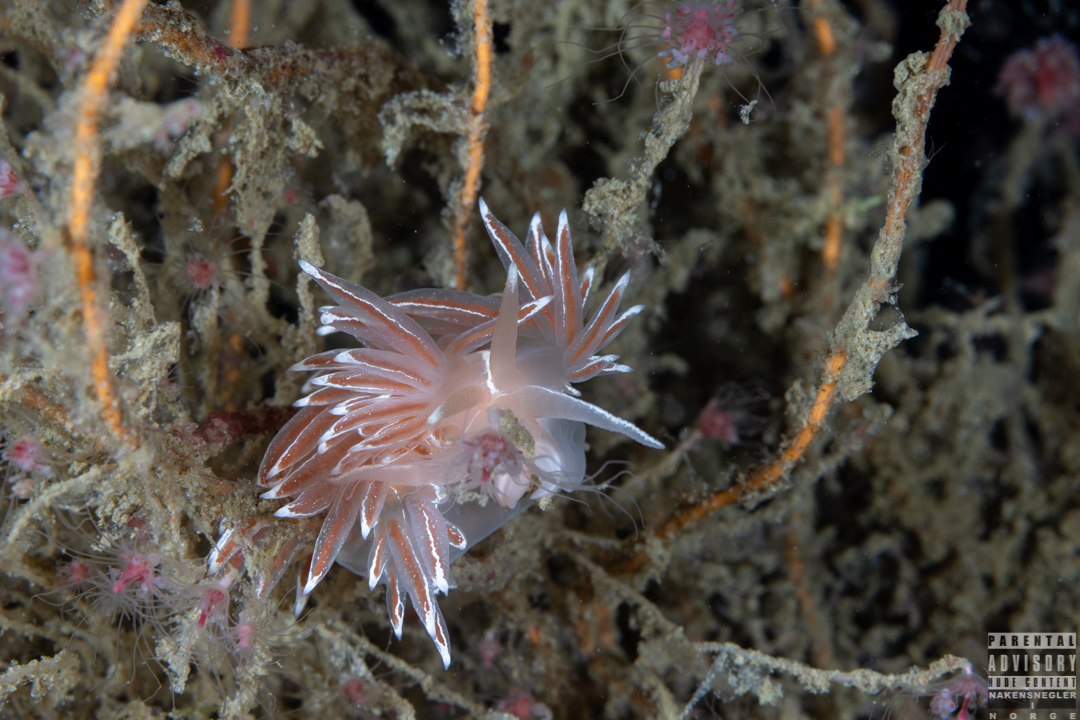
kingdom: Animalia
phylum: Mollusca
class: Gastropoda
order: Nudibranchia
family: Coryphellidae
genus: Coryphella
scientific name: Coryphella lineata
